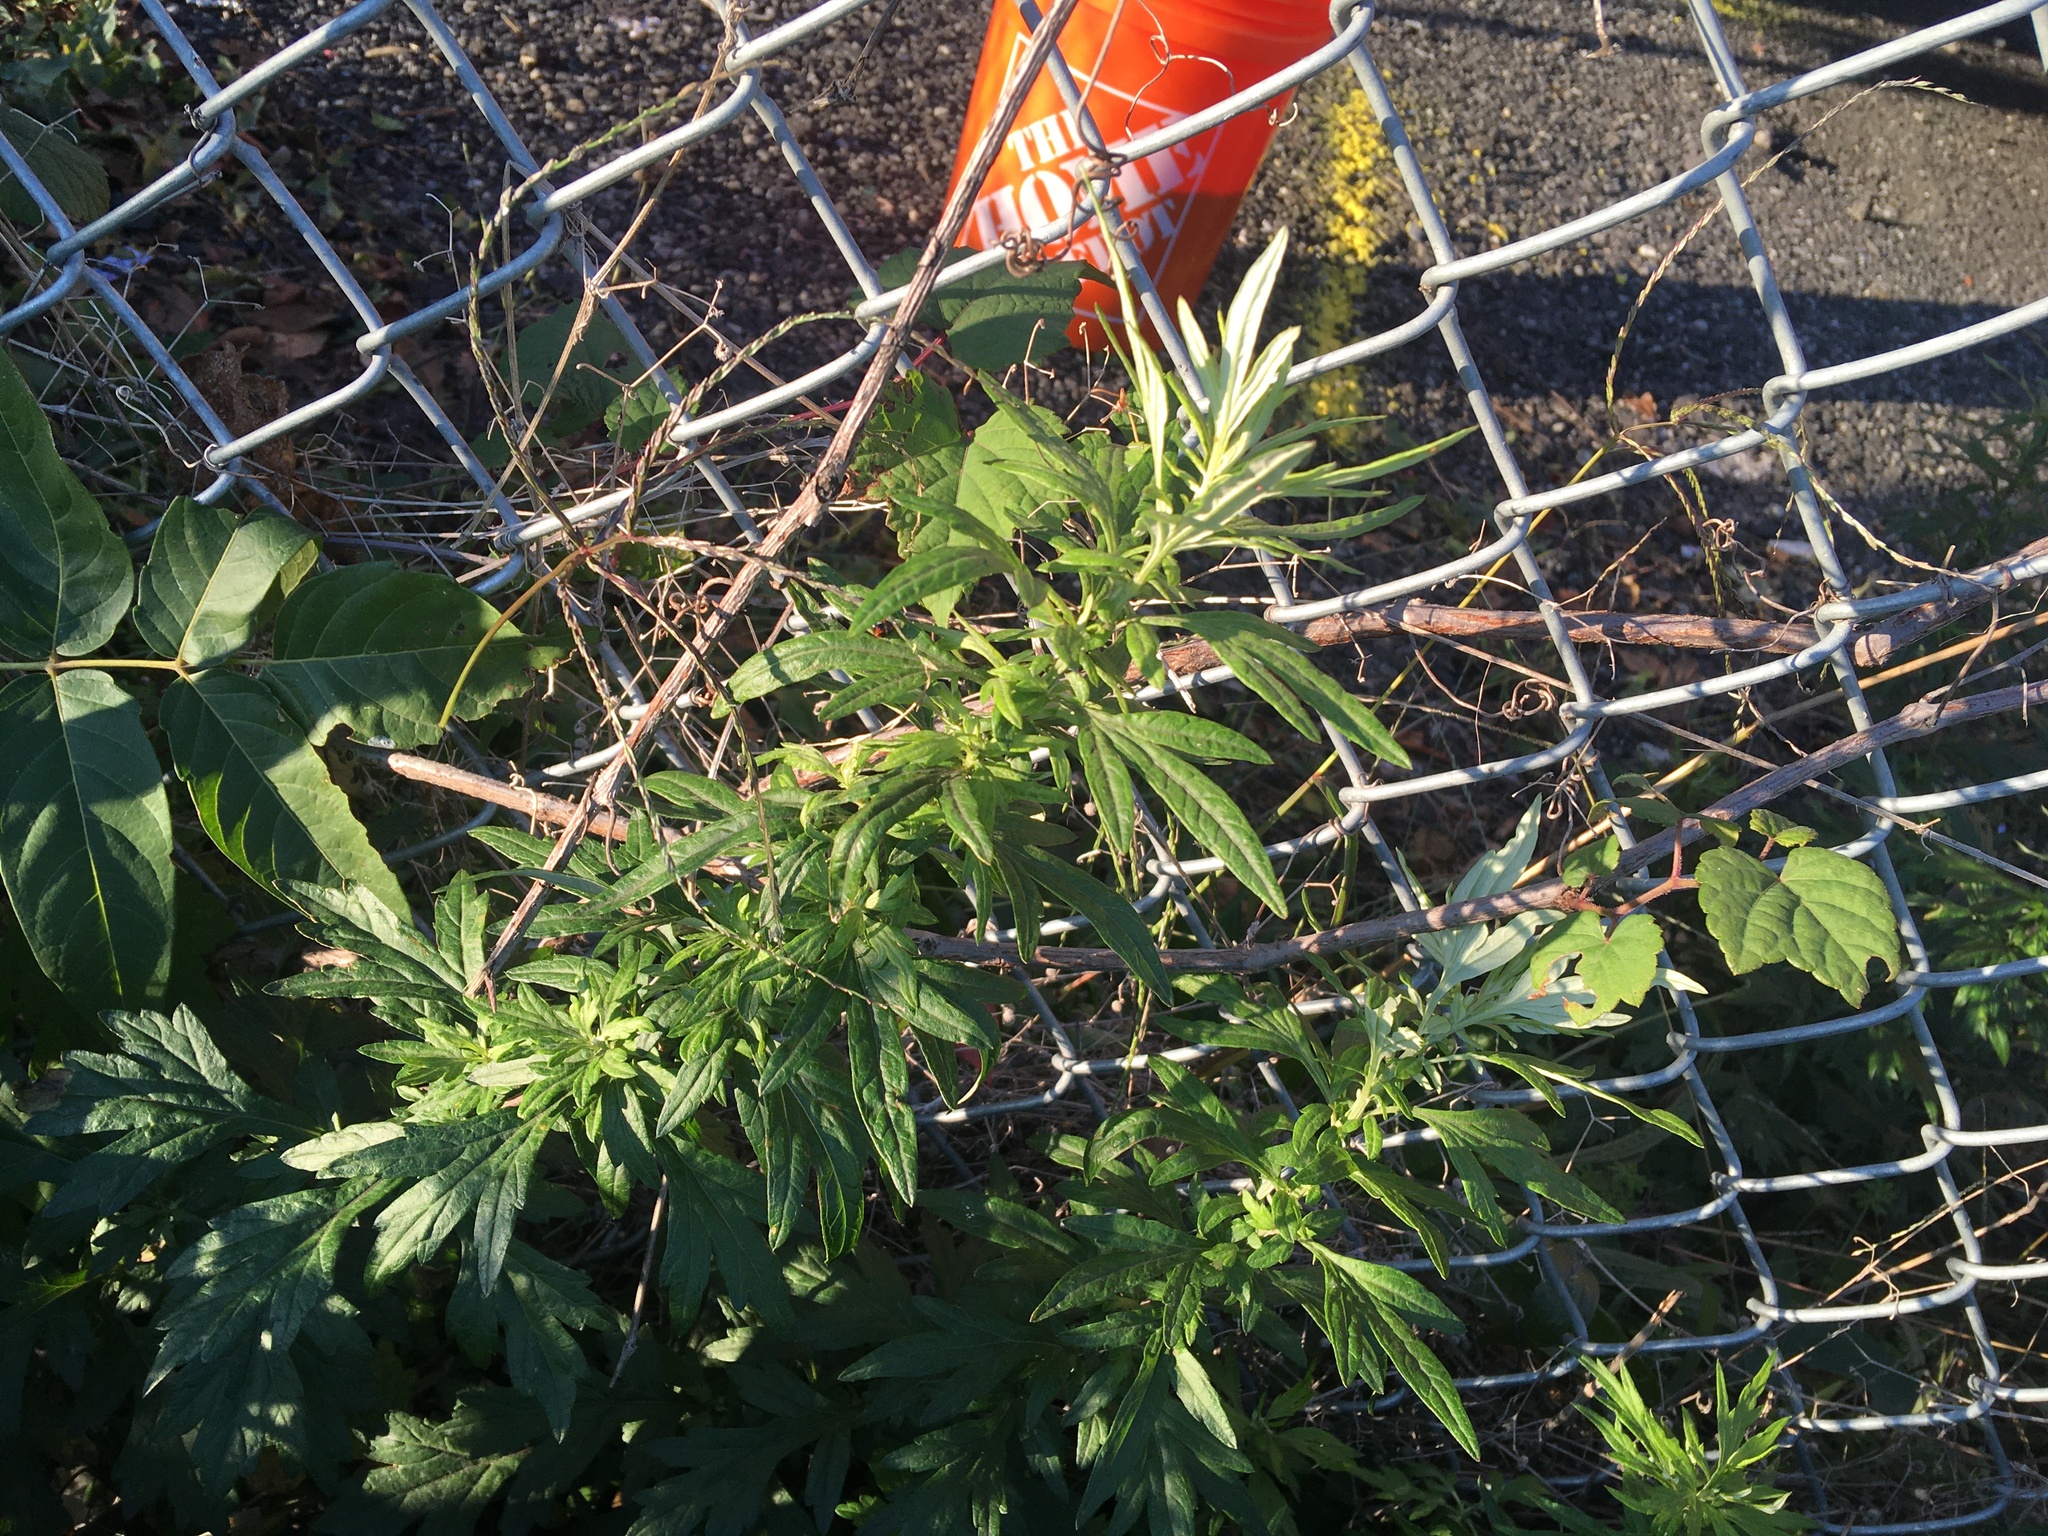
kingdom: Plantae
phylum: Tracheophyta
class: Magnoliopsida
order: Asterales
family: Asteraceae
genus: Artemisia
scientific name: Artemisia vulgaris
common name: Mugwort
